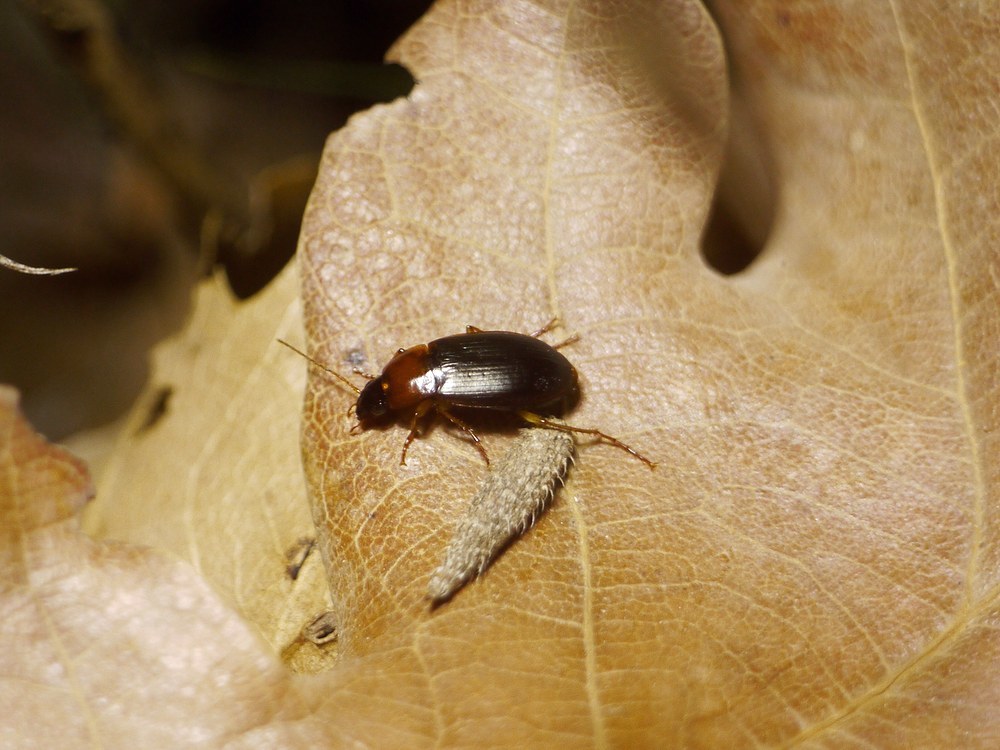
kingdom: Animalia
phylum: Arthropoda
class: Insecta
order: Coleoptera
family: Carabidae
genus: Calathus
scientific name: Calathus melanocephalus
